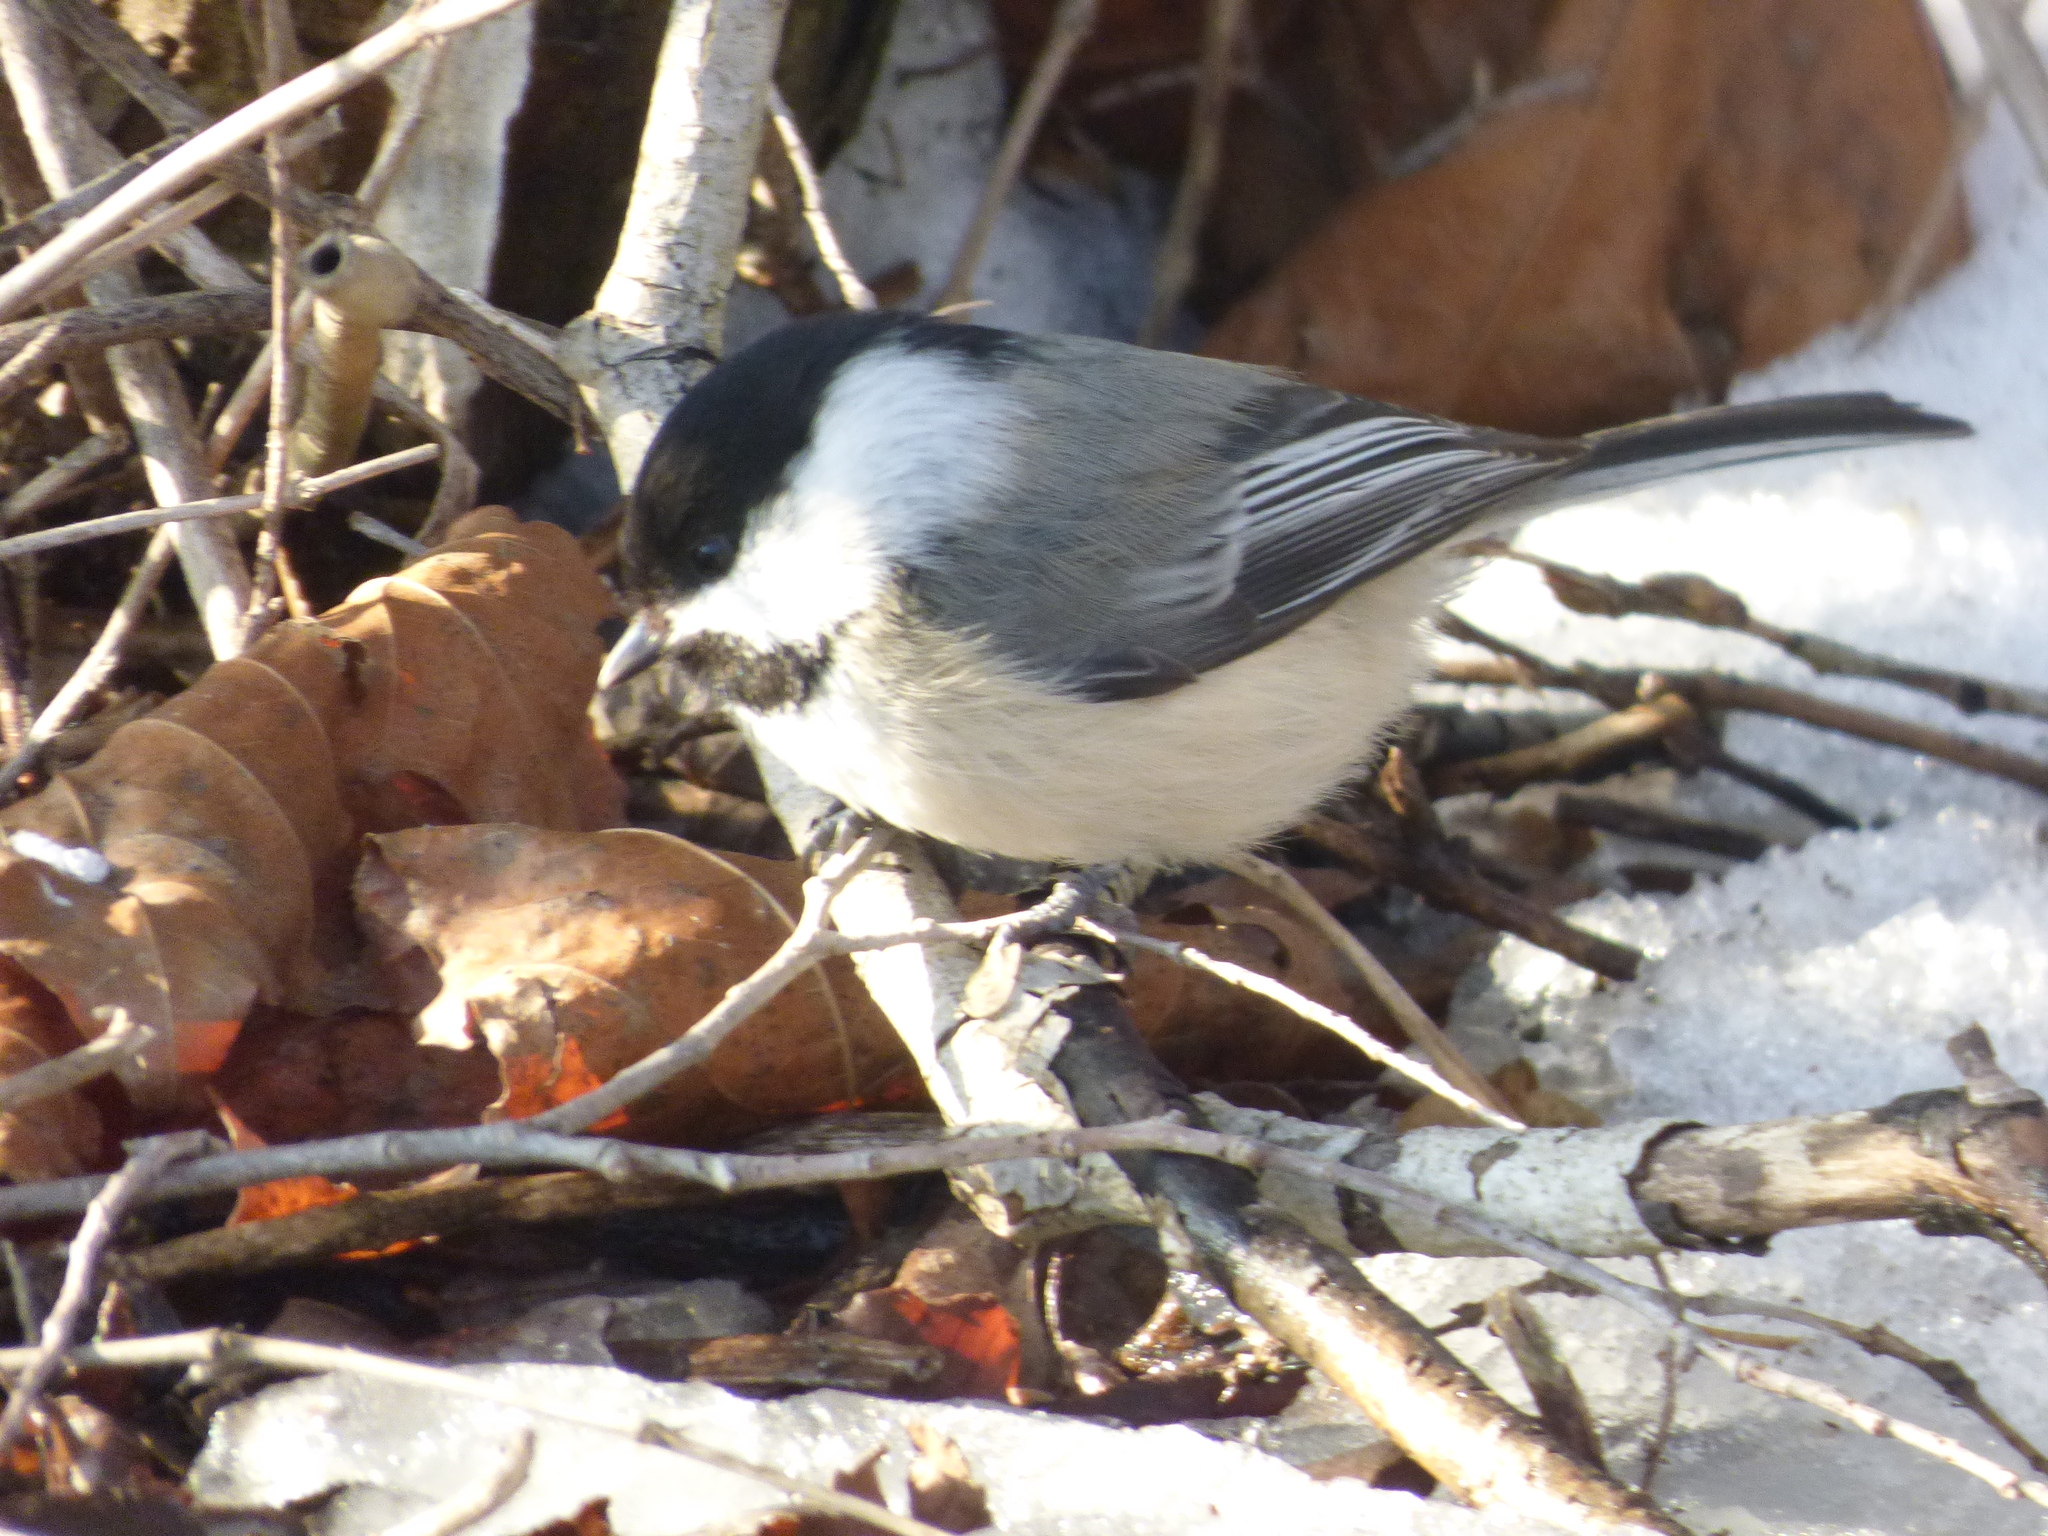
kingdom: Animalia
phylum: Chordata
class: Aves
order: Passeriformes
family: Paridae
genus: Poecile
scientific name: Poecile atricapillus
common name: Black-capped chickadee
